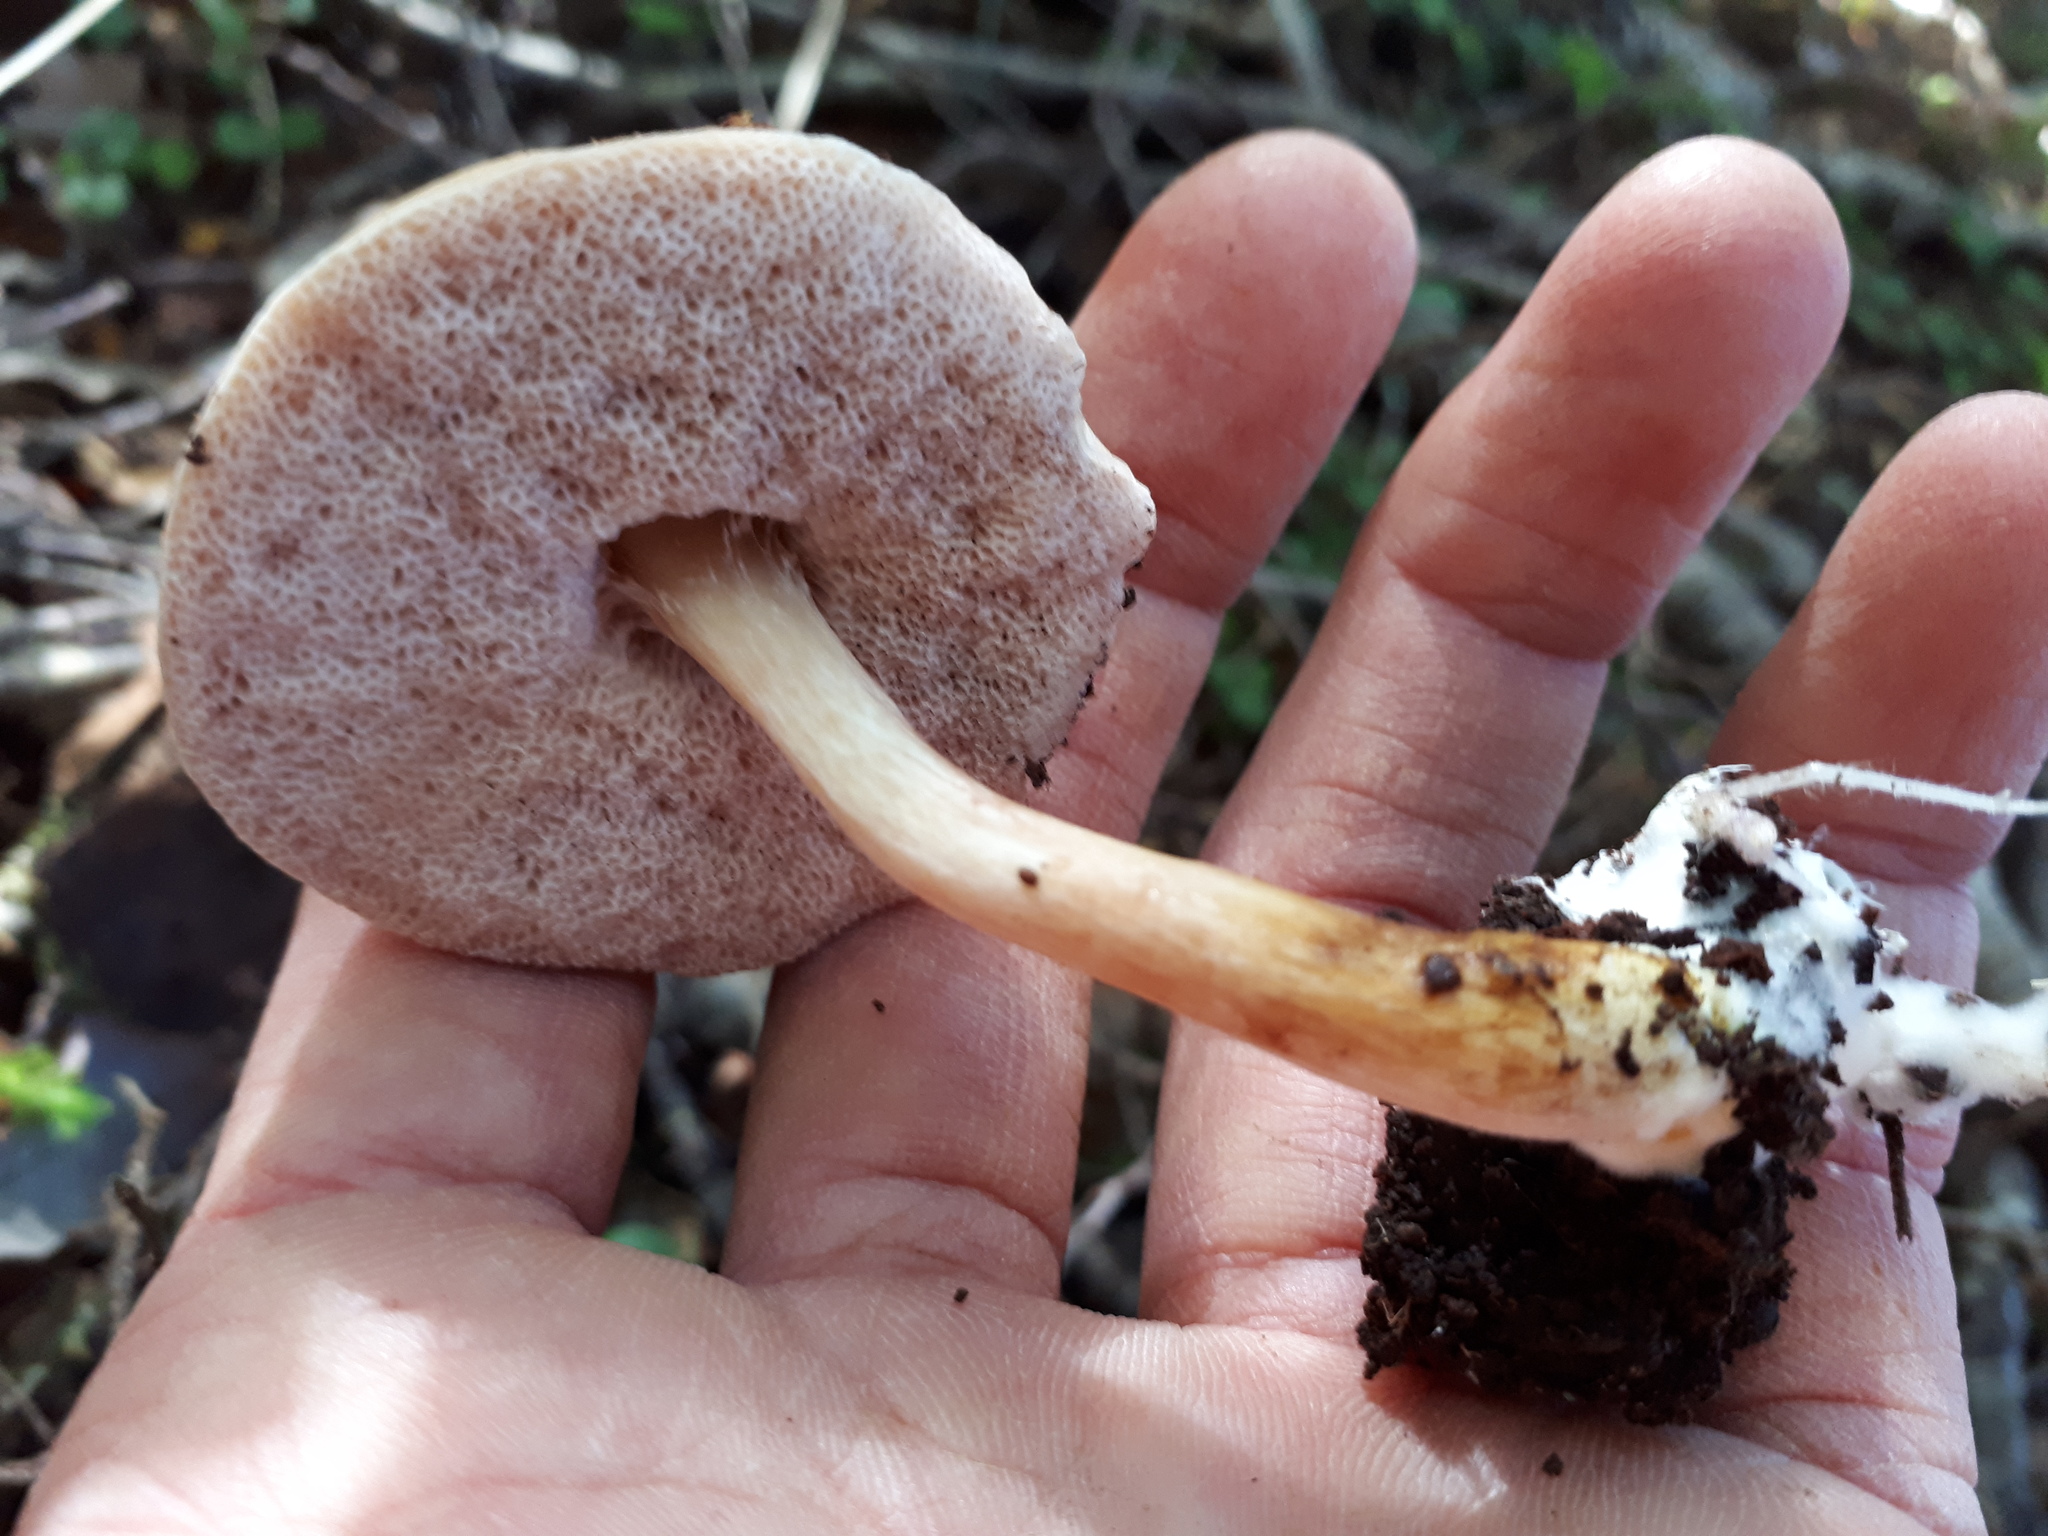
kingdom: Fungi
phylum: Basidiomycota
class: Agaricomycetes
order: Boletales
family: Boletaceae
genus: Fistulinella
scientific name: Fistulinella violaceipora
